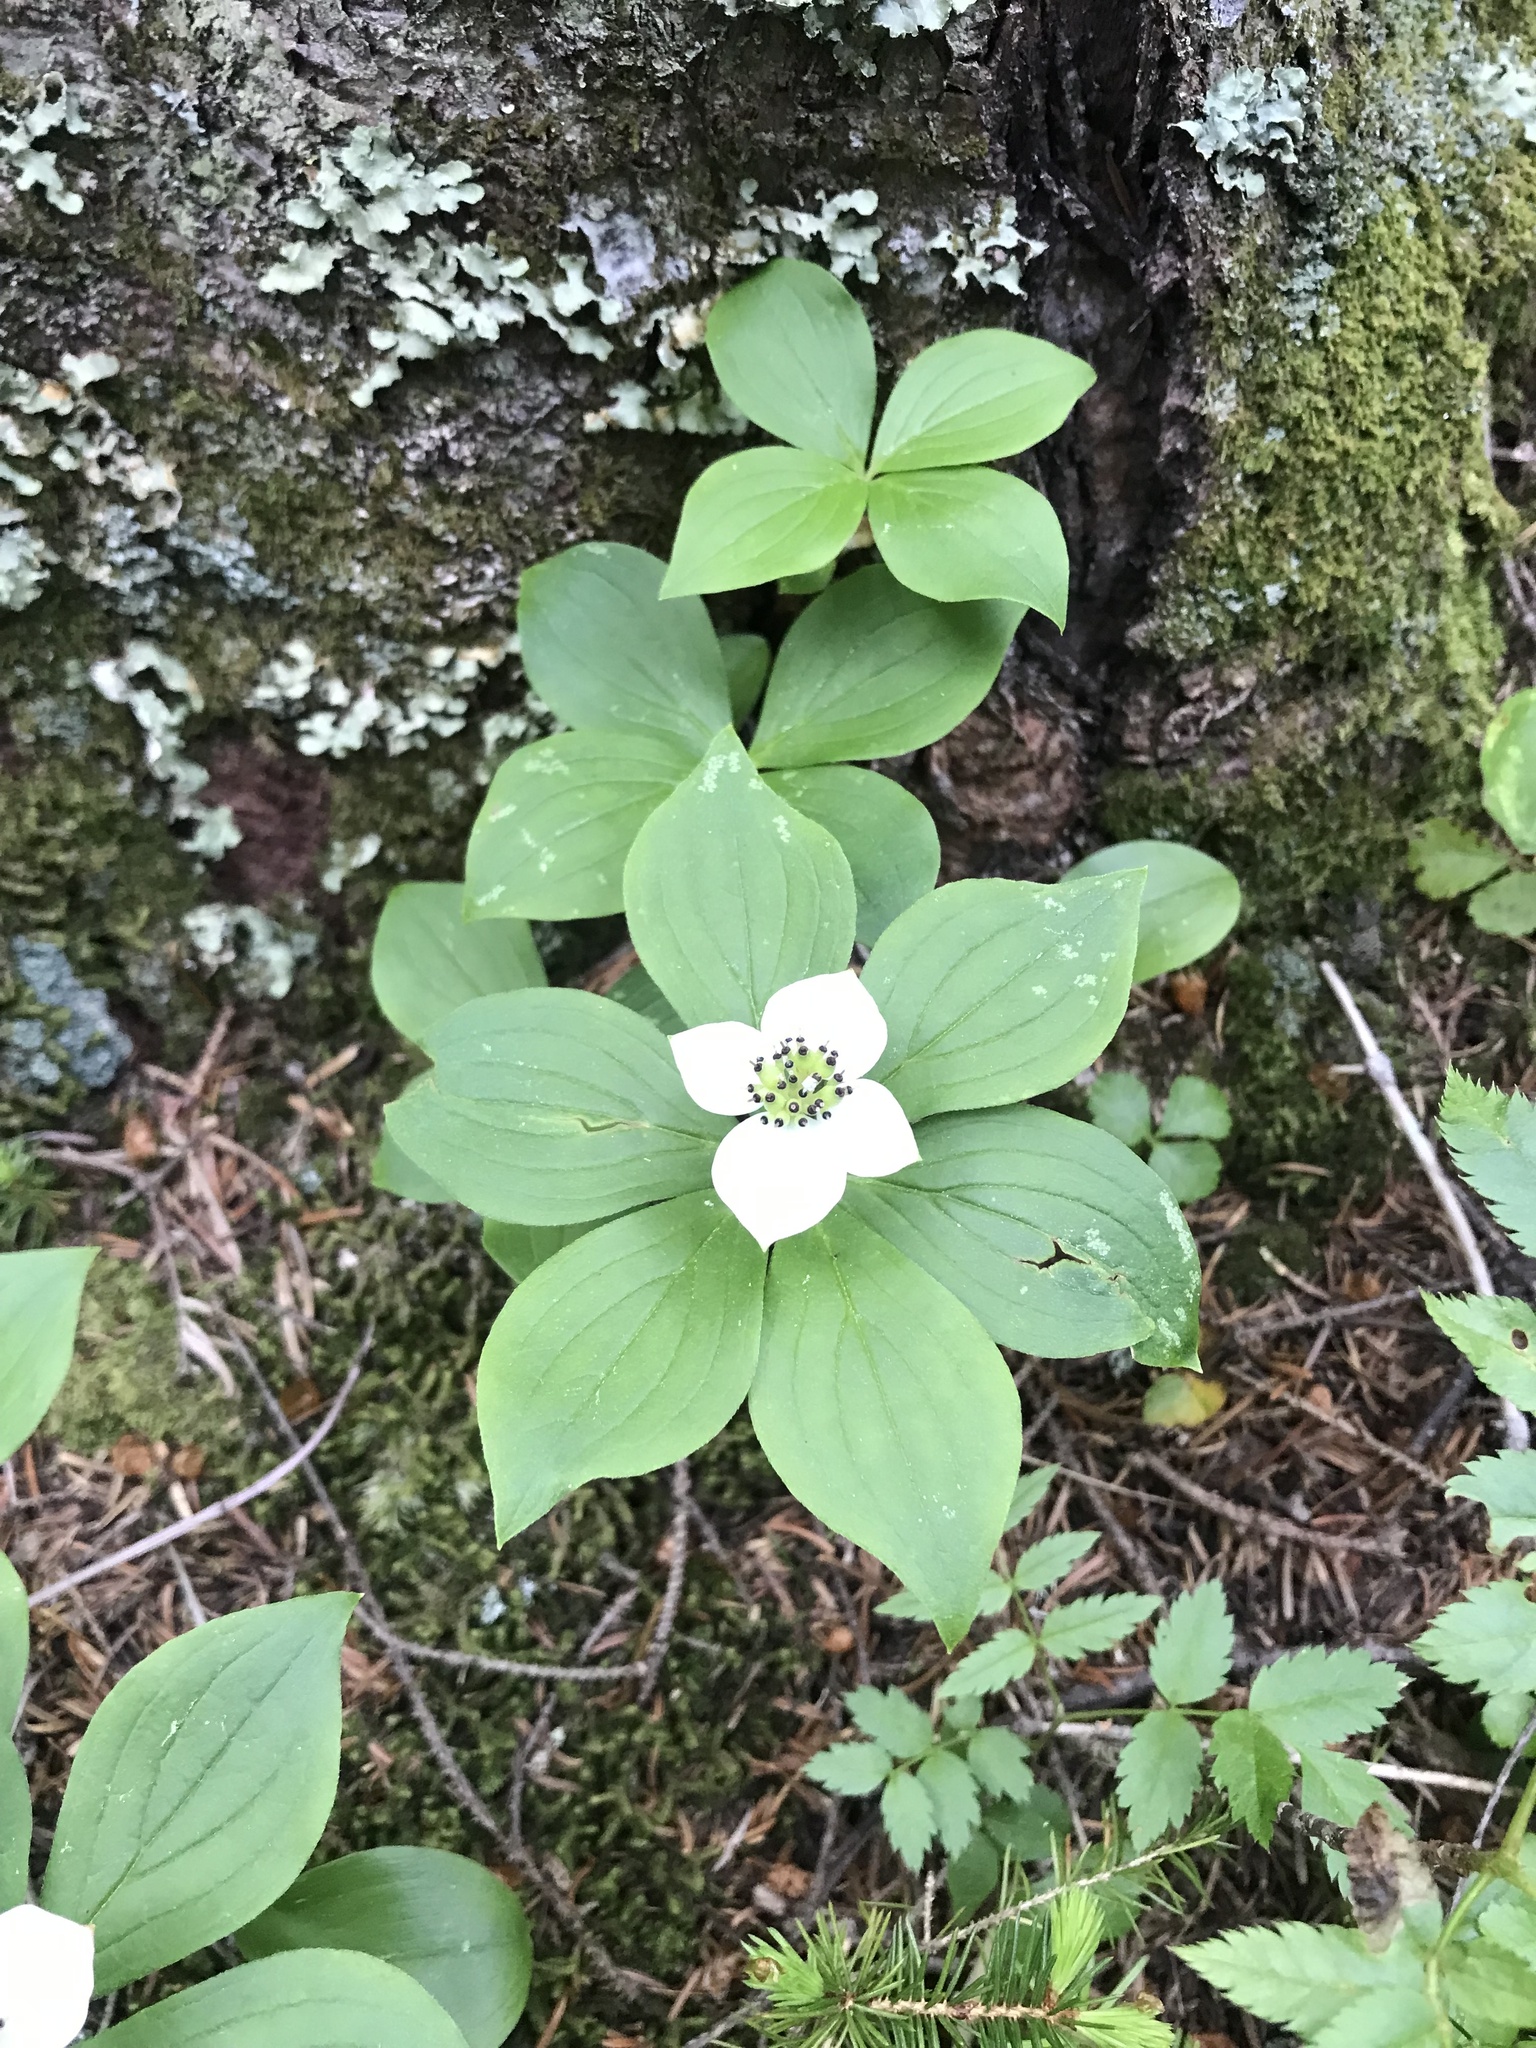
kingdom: Plantae
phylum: Tracheophyta
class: Magnoliopsida
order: Cornales
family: Cornaceae
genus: Cornus
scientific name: Cornus canadensis
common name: Creeping dogwood
